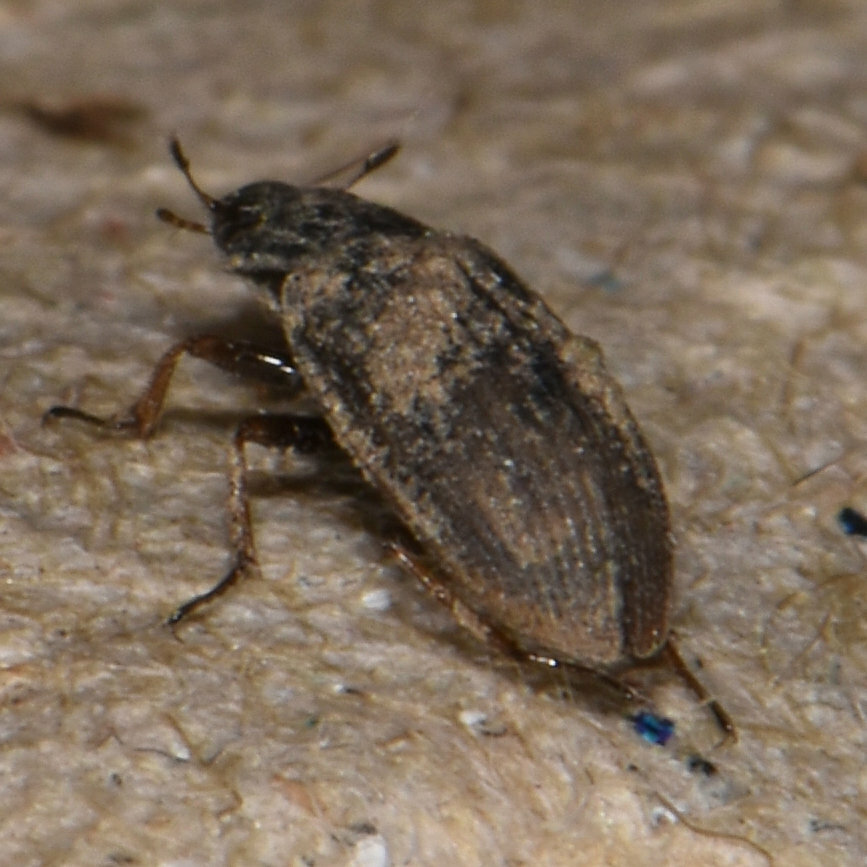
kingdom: Animalia
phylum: Arthropoda
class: Insecta
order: Coleoptera
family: Helophoridae
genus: Helophorus
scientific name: Helophorus
